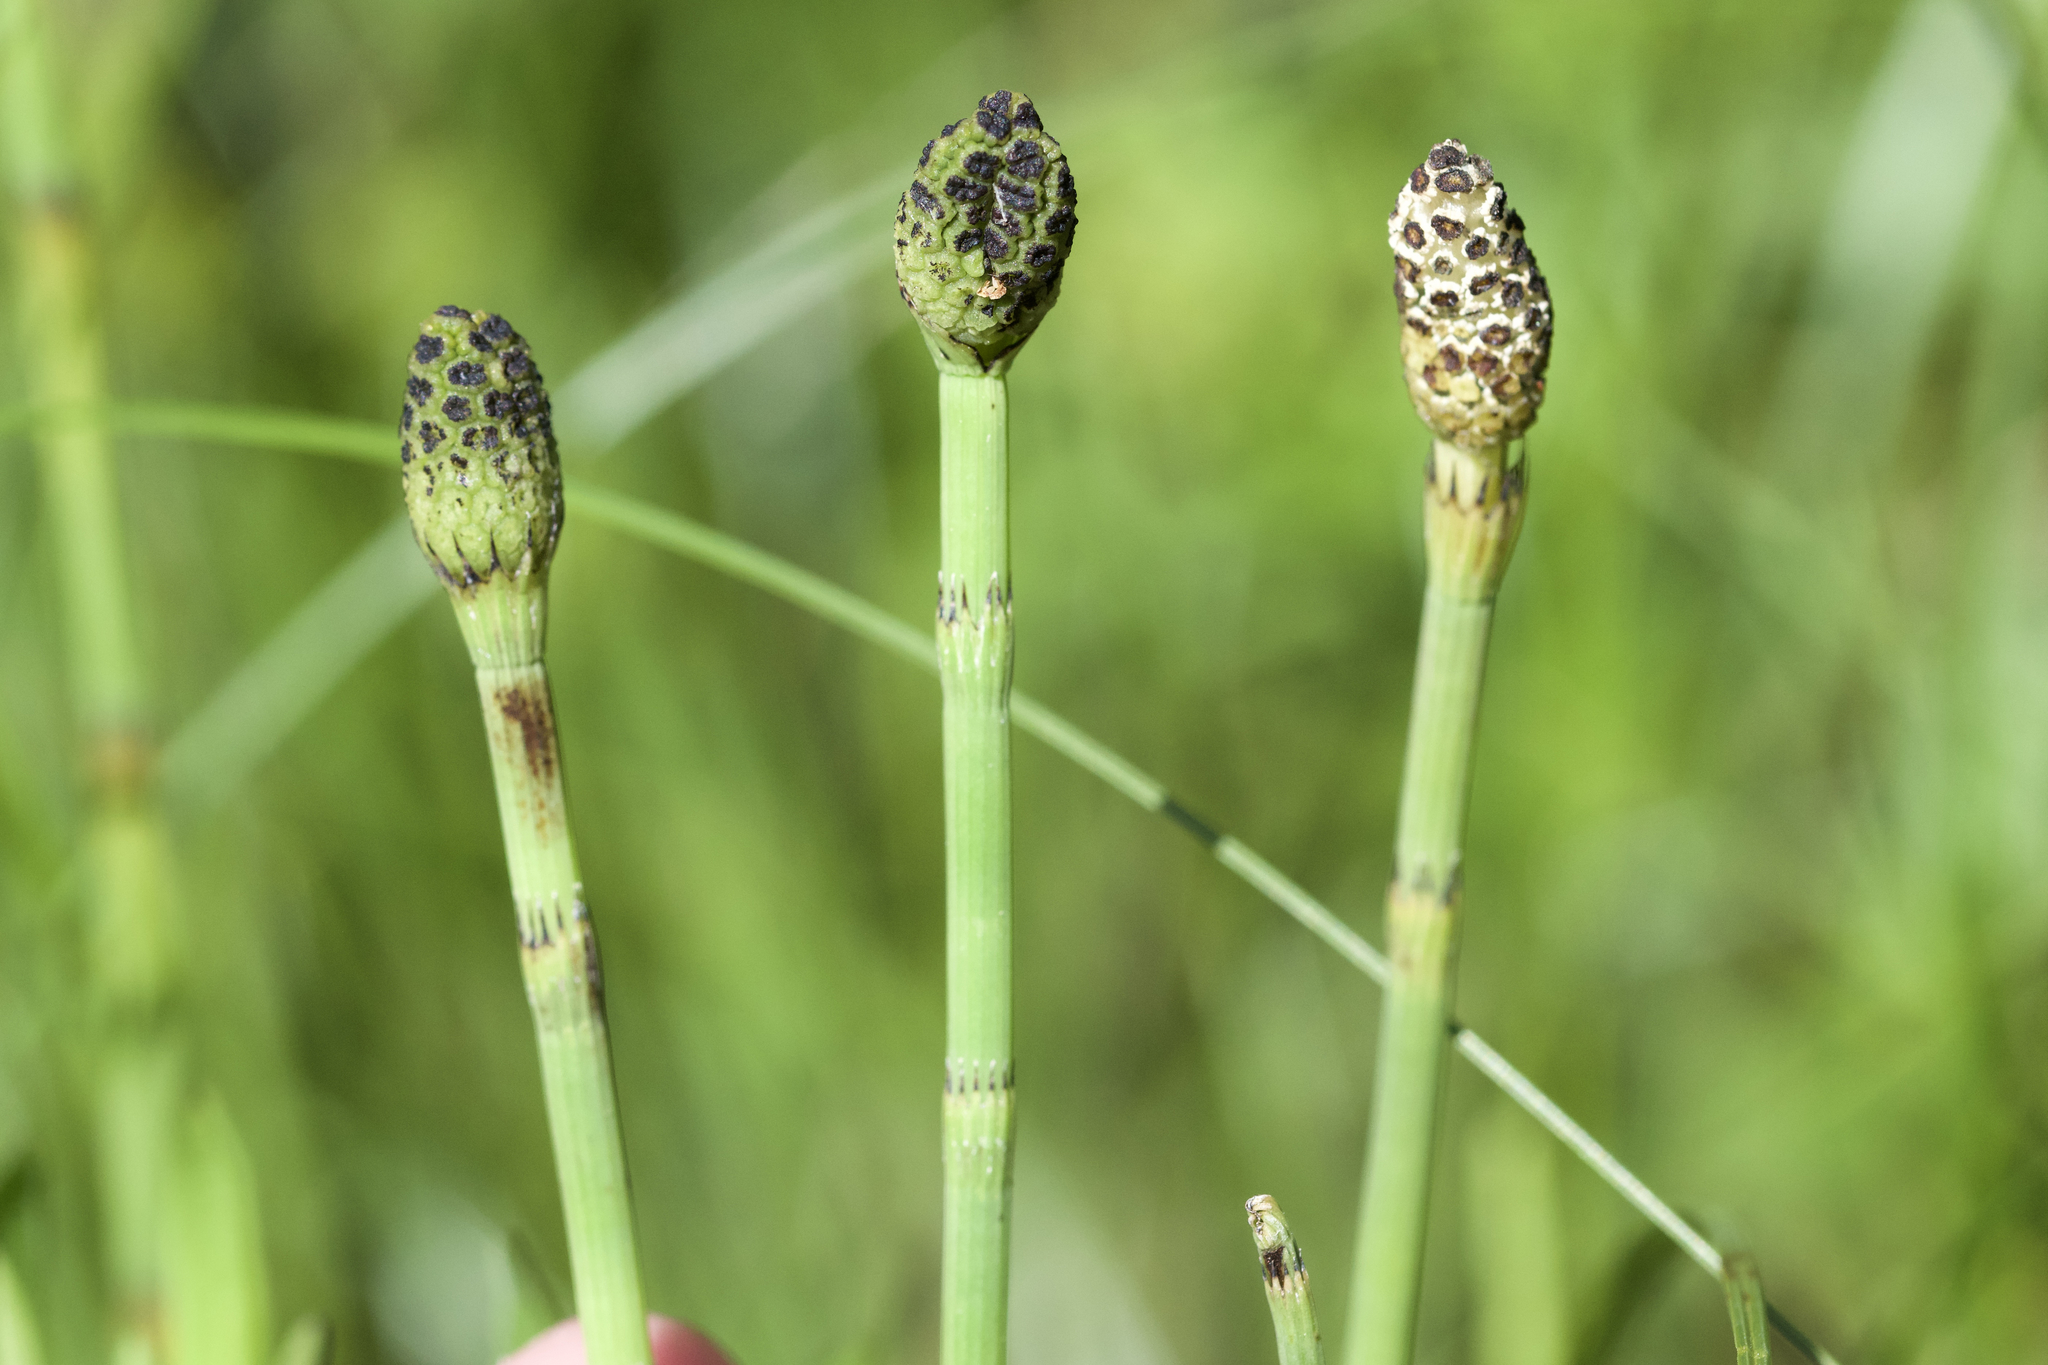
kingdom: Plantae
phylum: Tracheophyta
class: Polypodiopsida
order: Equisetales
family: Equisetaceae
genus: Equisetum
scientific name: Equisetum fluviatile
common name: Water horsetail
